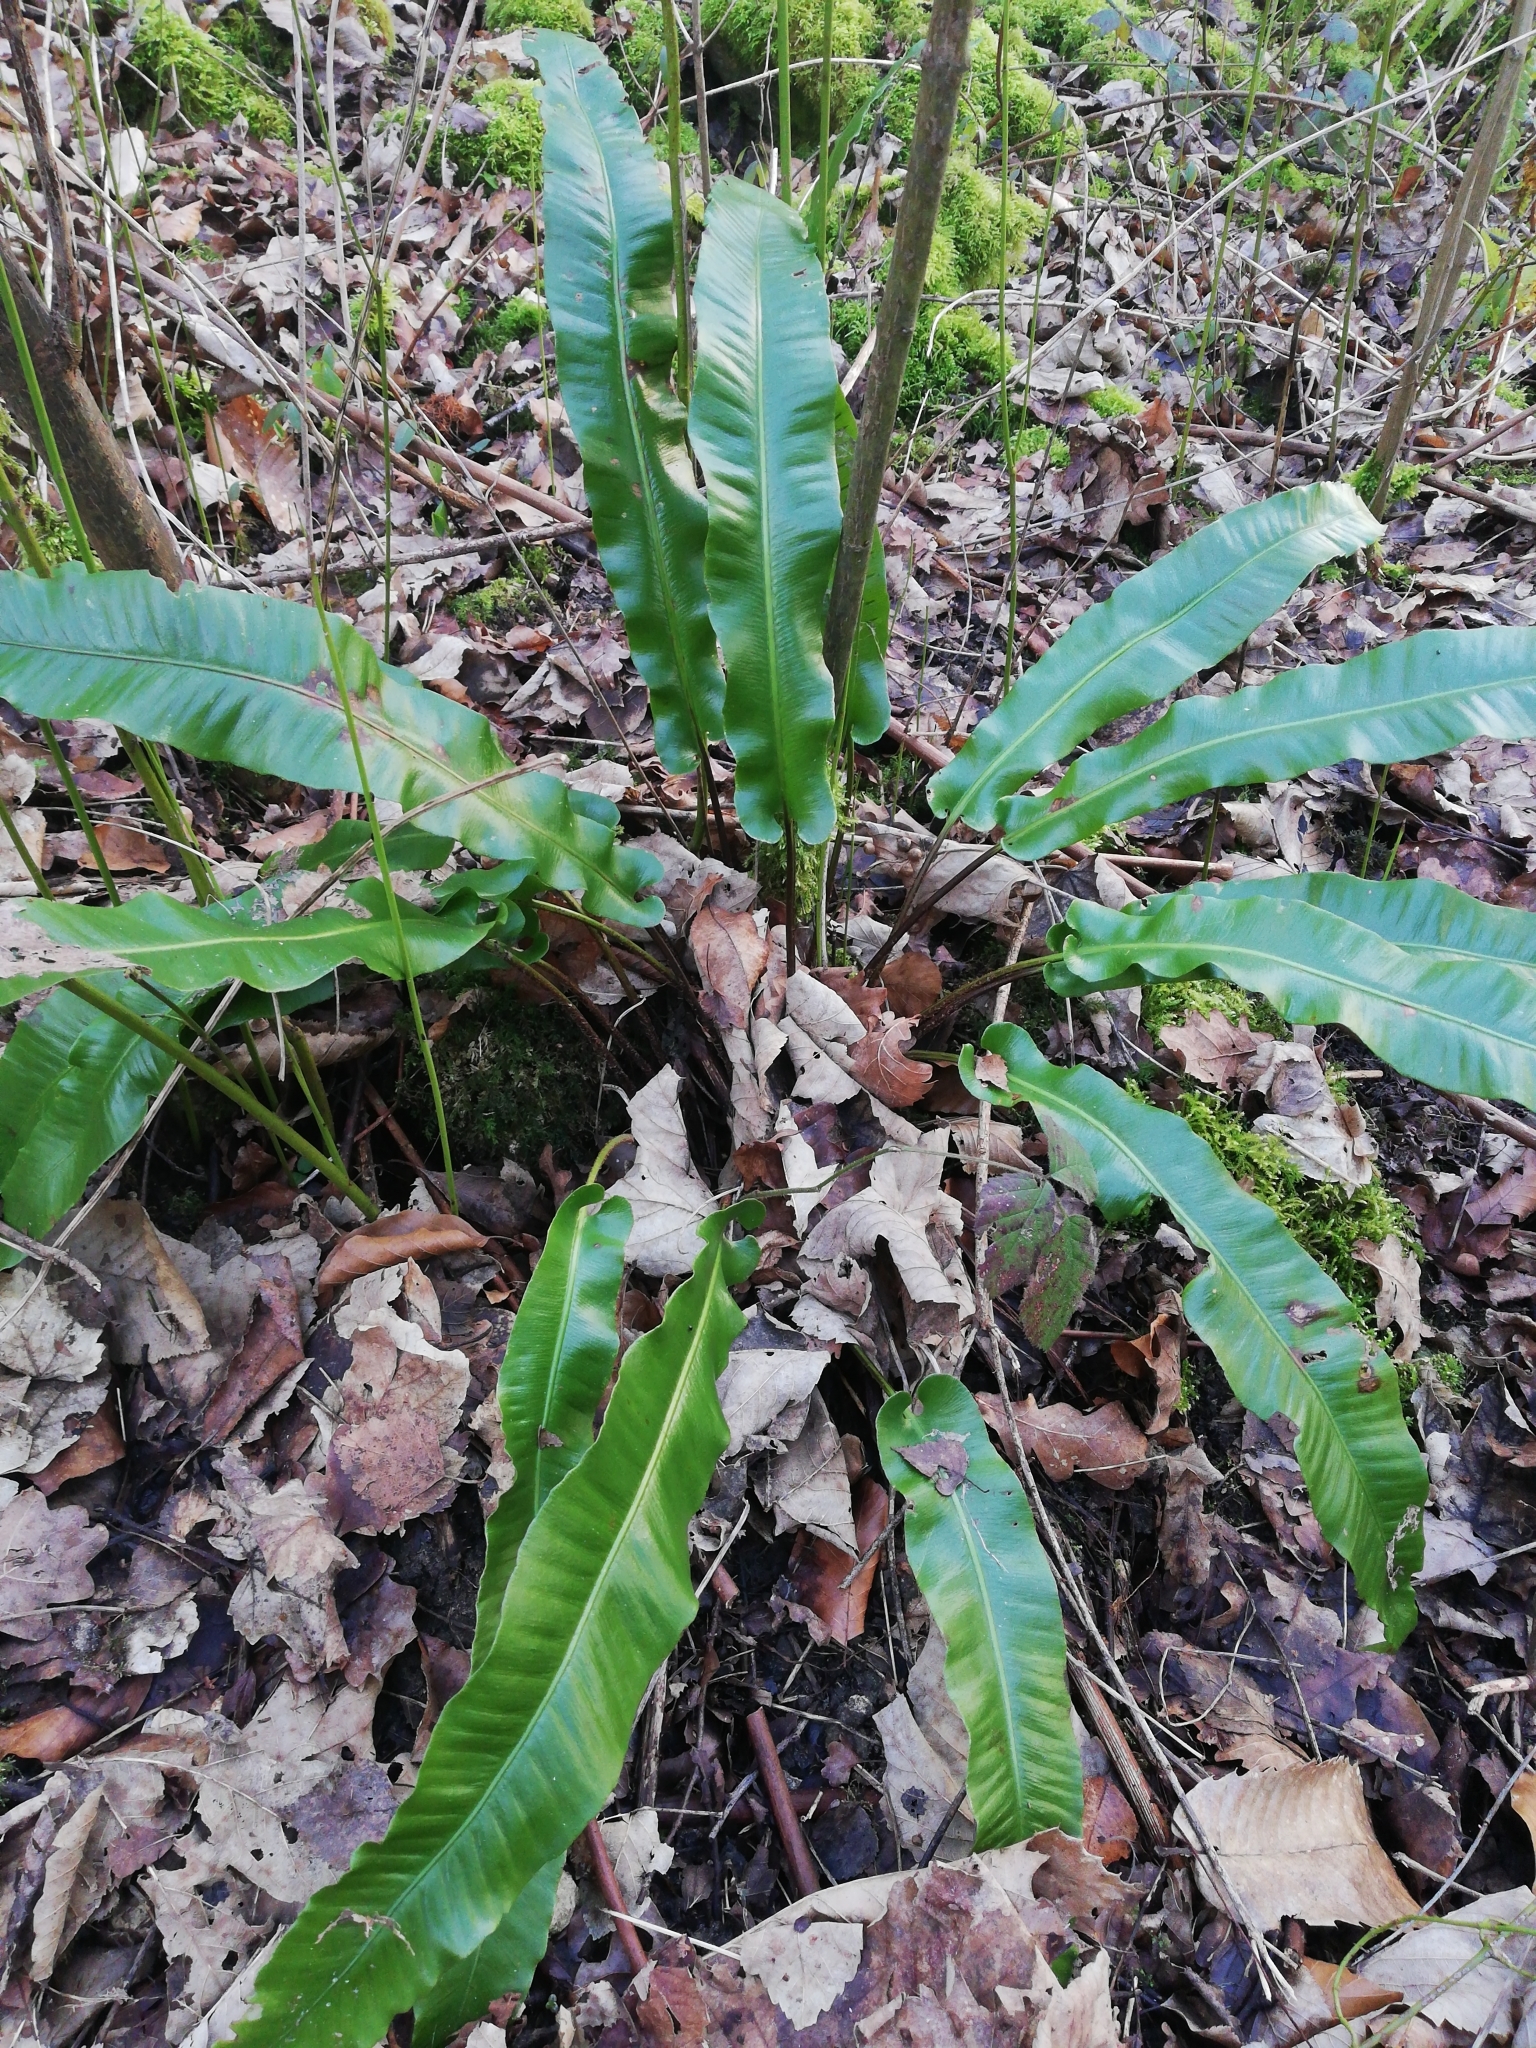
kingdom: Plantae
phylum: Tracheophyta
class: Polypodiopsida
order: Polypodiales
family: Aspleniaceae
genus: Asplenium
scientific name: Asplenium scolopendrium
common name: Hart's-tongue fern
